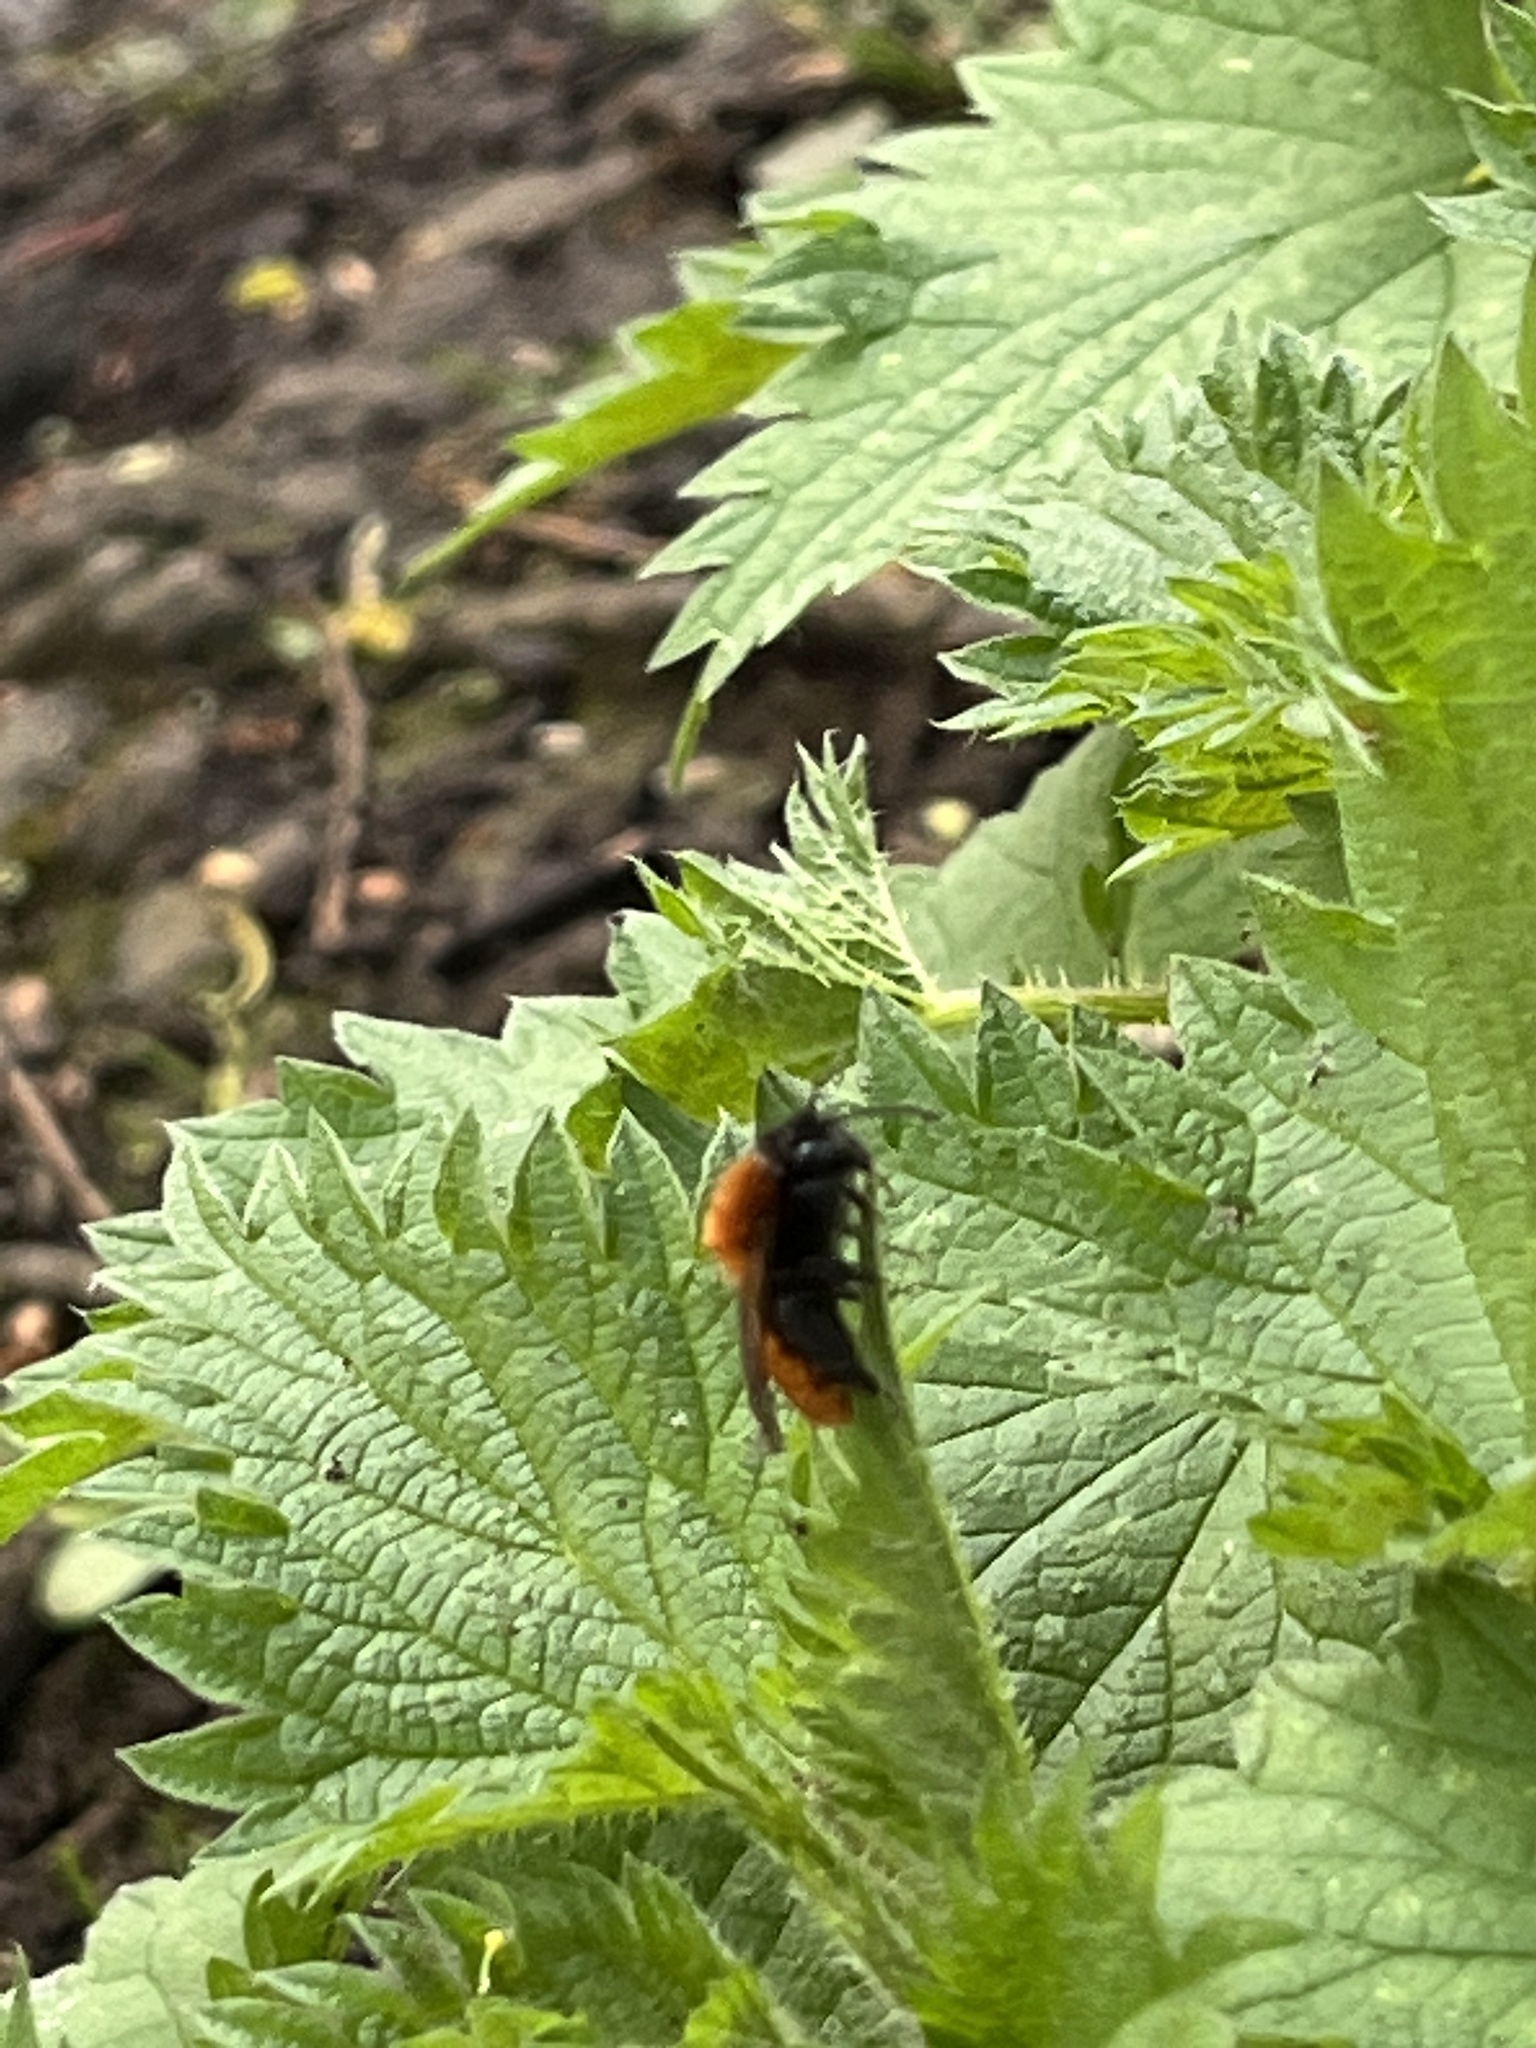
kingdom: Animalia
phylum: Arthropoda
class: Insecta
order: Hymenoptera
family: Andrenidae
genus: Andrena
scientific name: Andrena fulva
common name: Tawny mining bee
